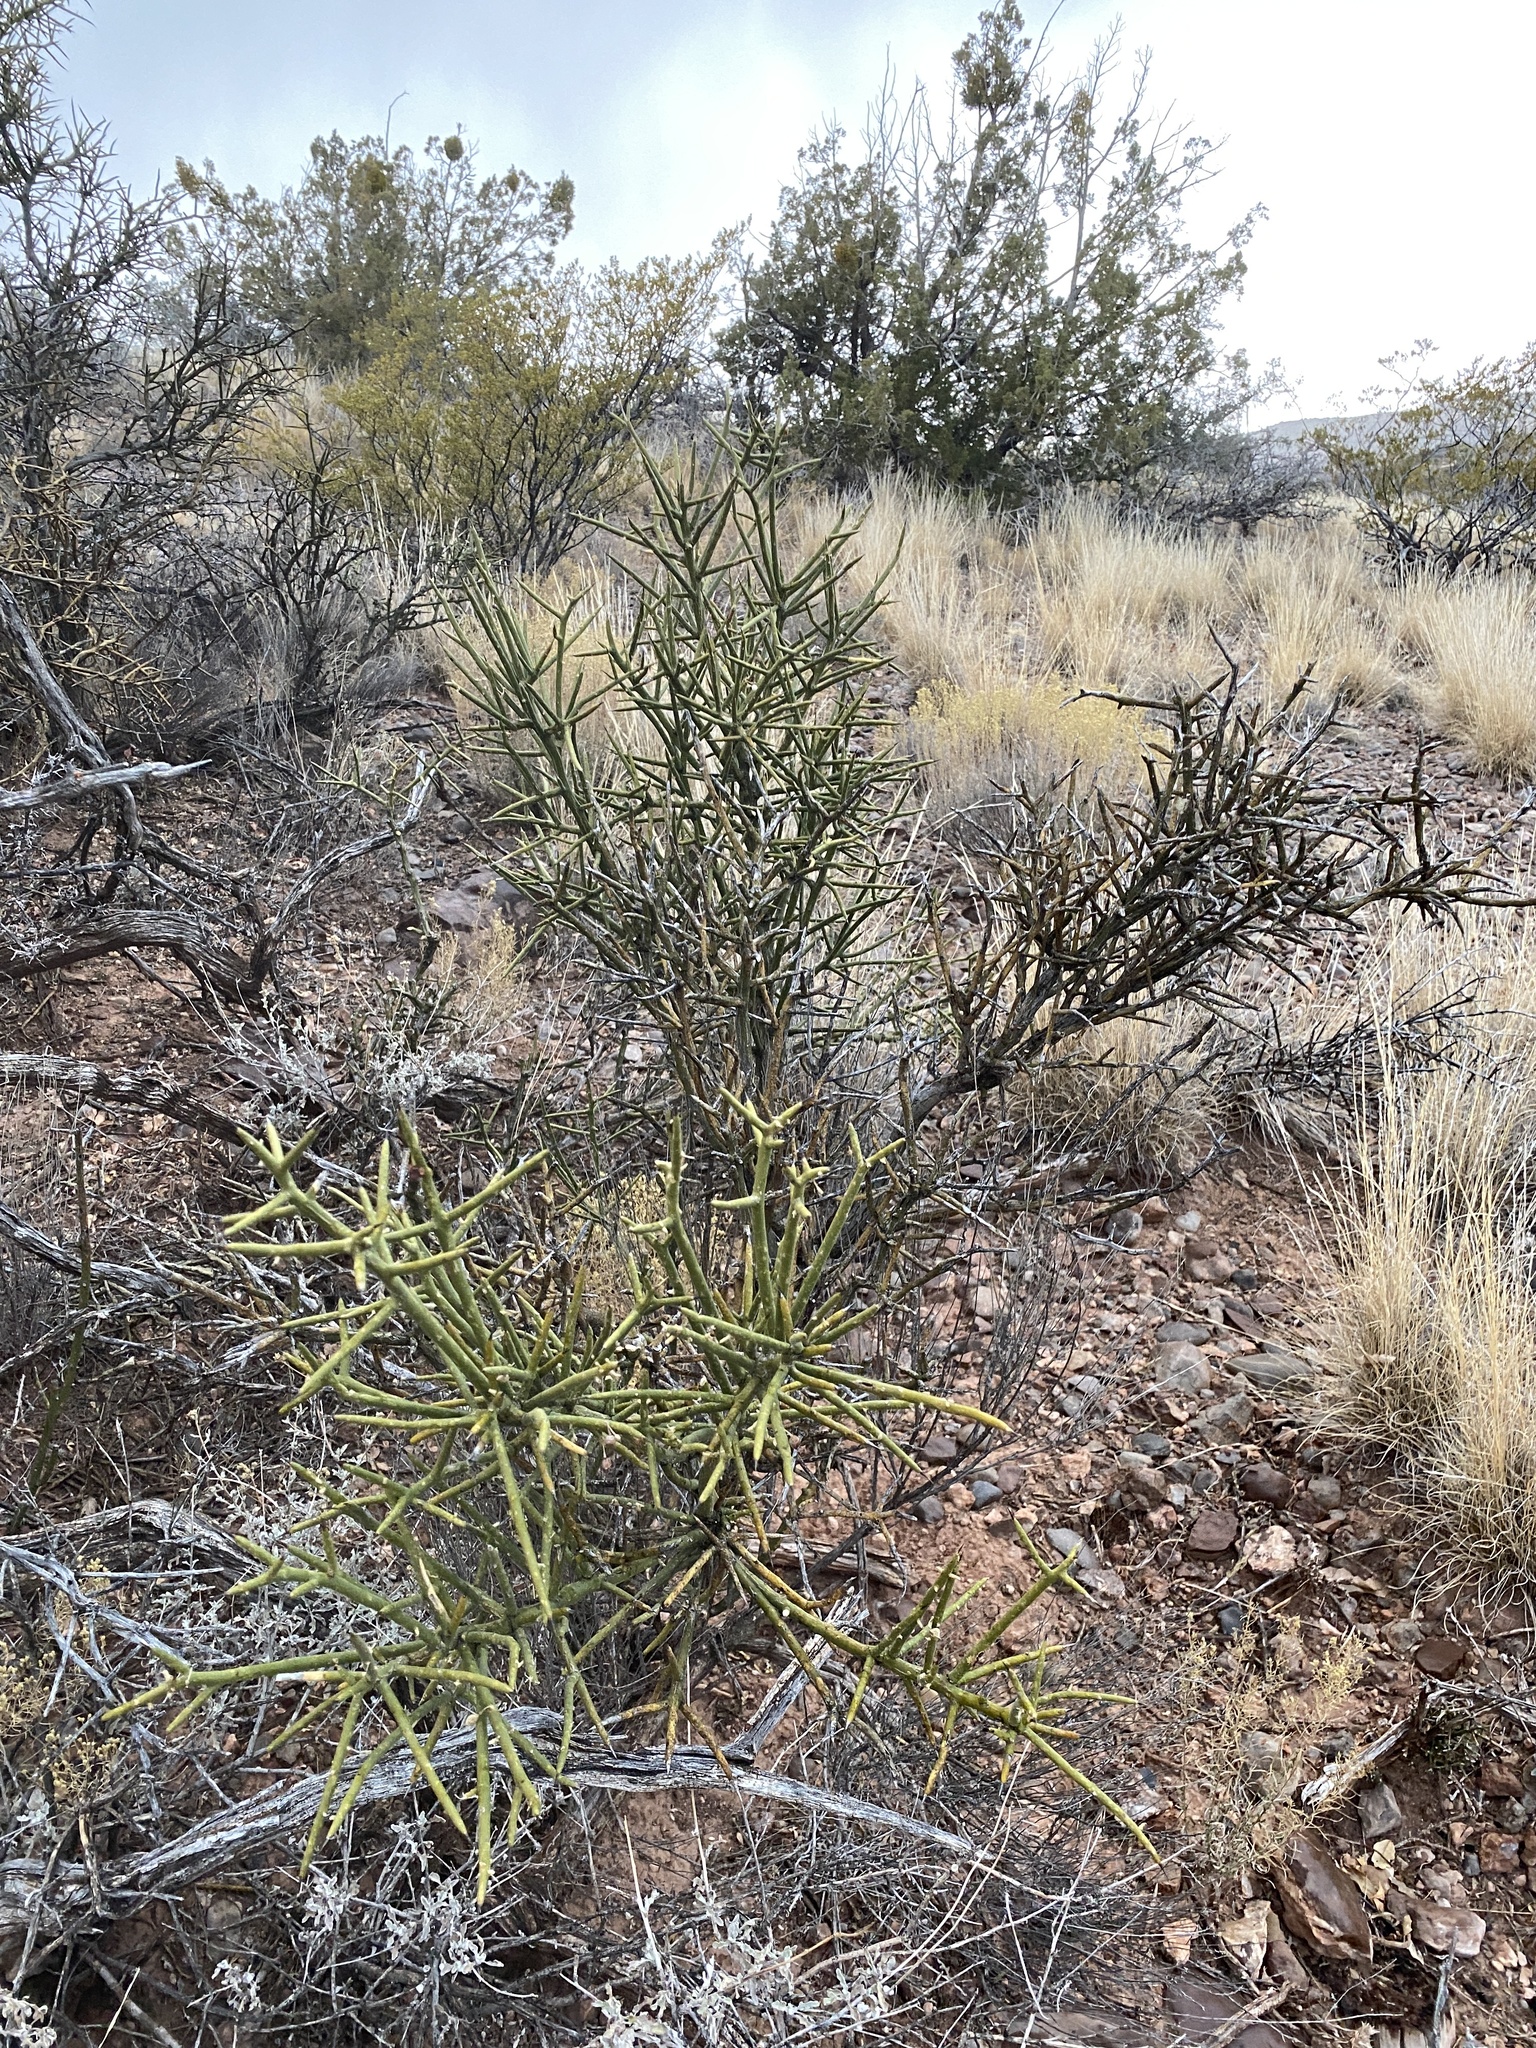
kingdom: Plantae
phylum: Tracheophyta
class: Magnoliopsida
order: Brassicales
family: Koeberliniaceae
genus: Koeberlinia
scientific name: Koeberlinia spinosa
